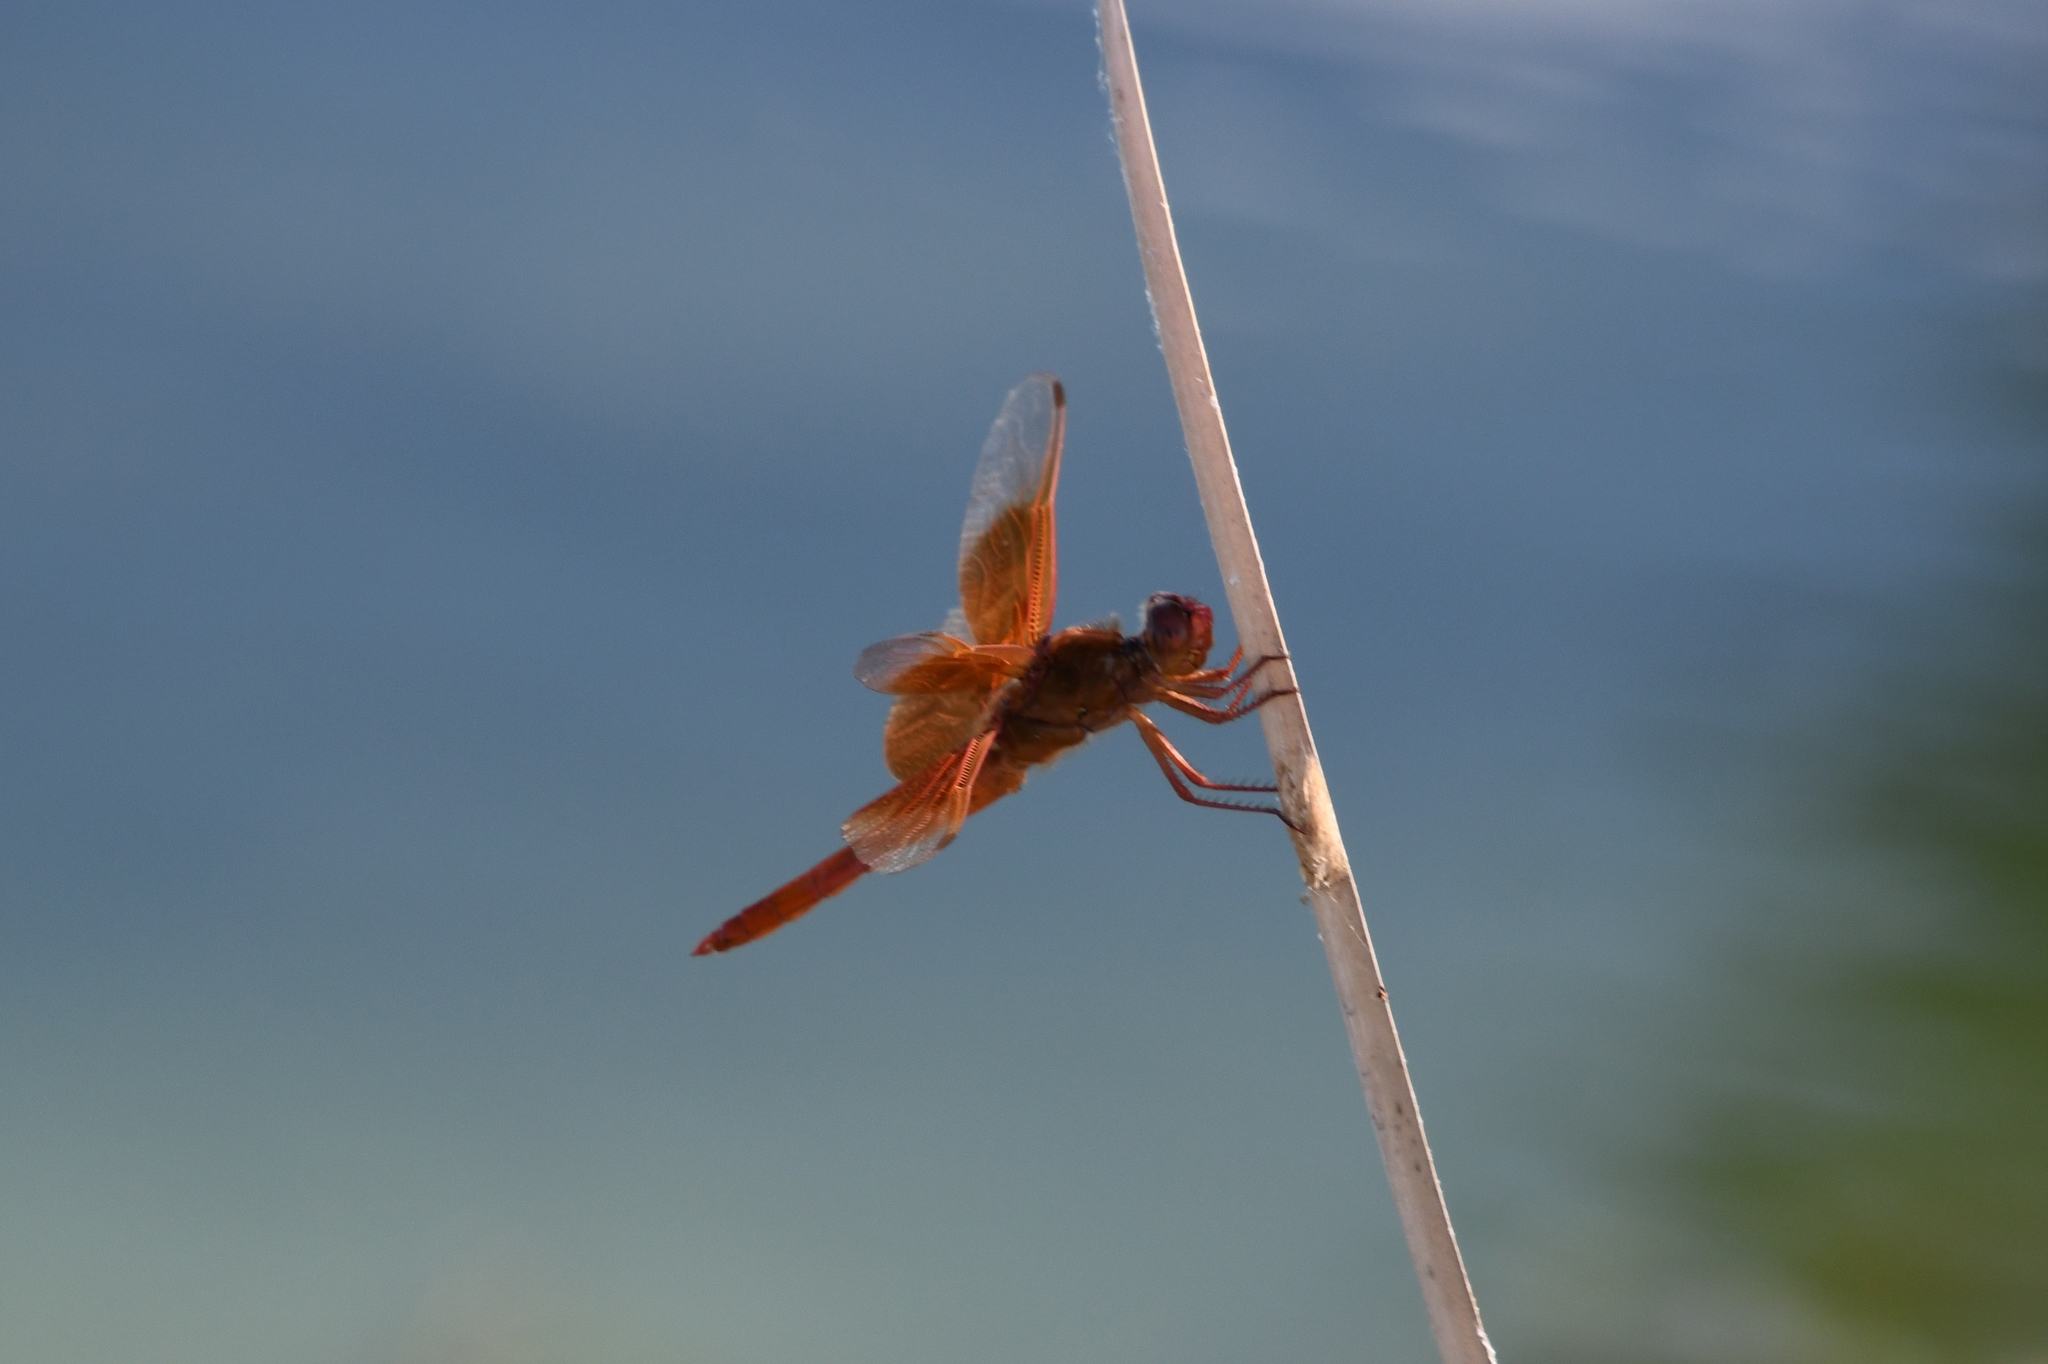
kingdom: Animalia
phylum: Arthropoda
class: Insecta
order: Odonata
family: Libellulidae
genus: Libellula
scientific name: Libellula saturata
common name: Flame skimmer
